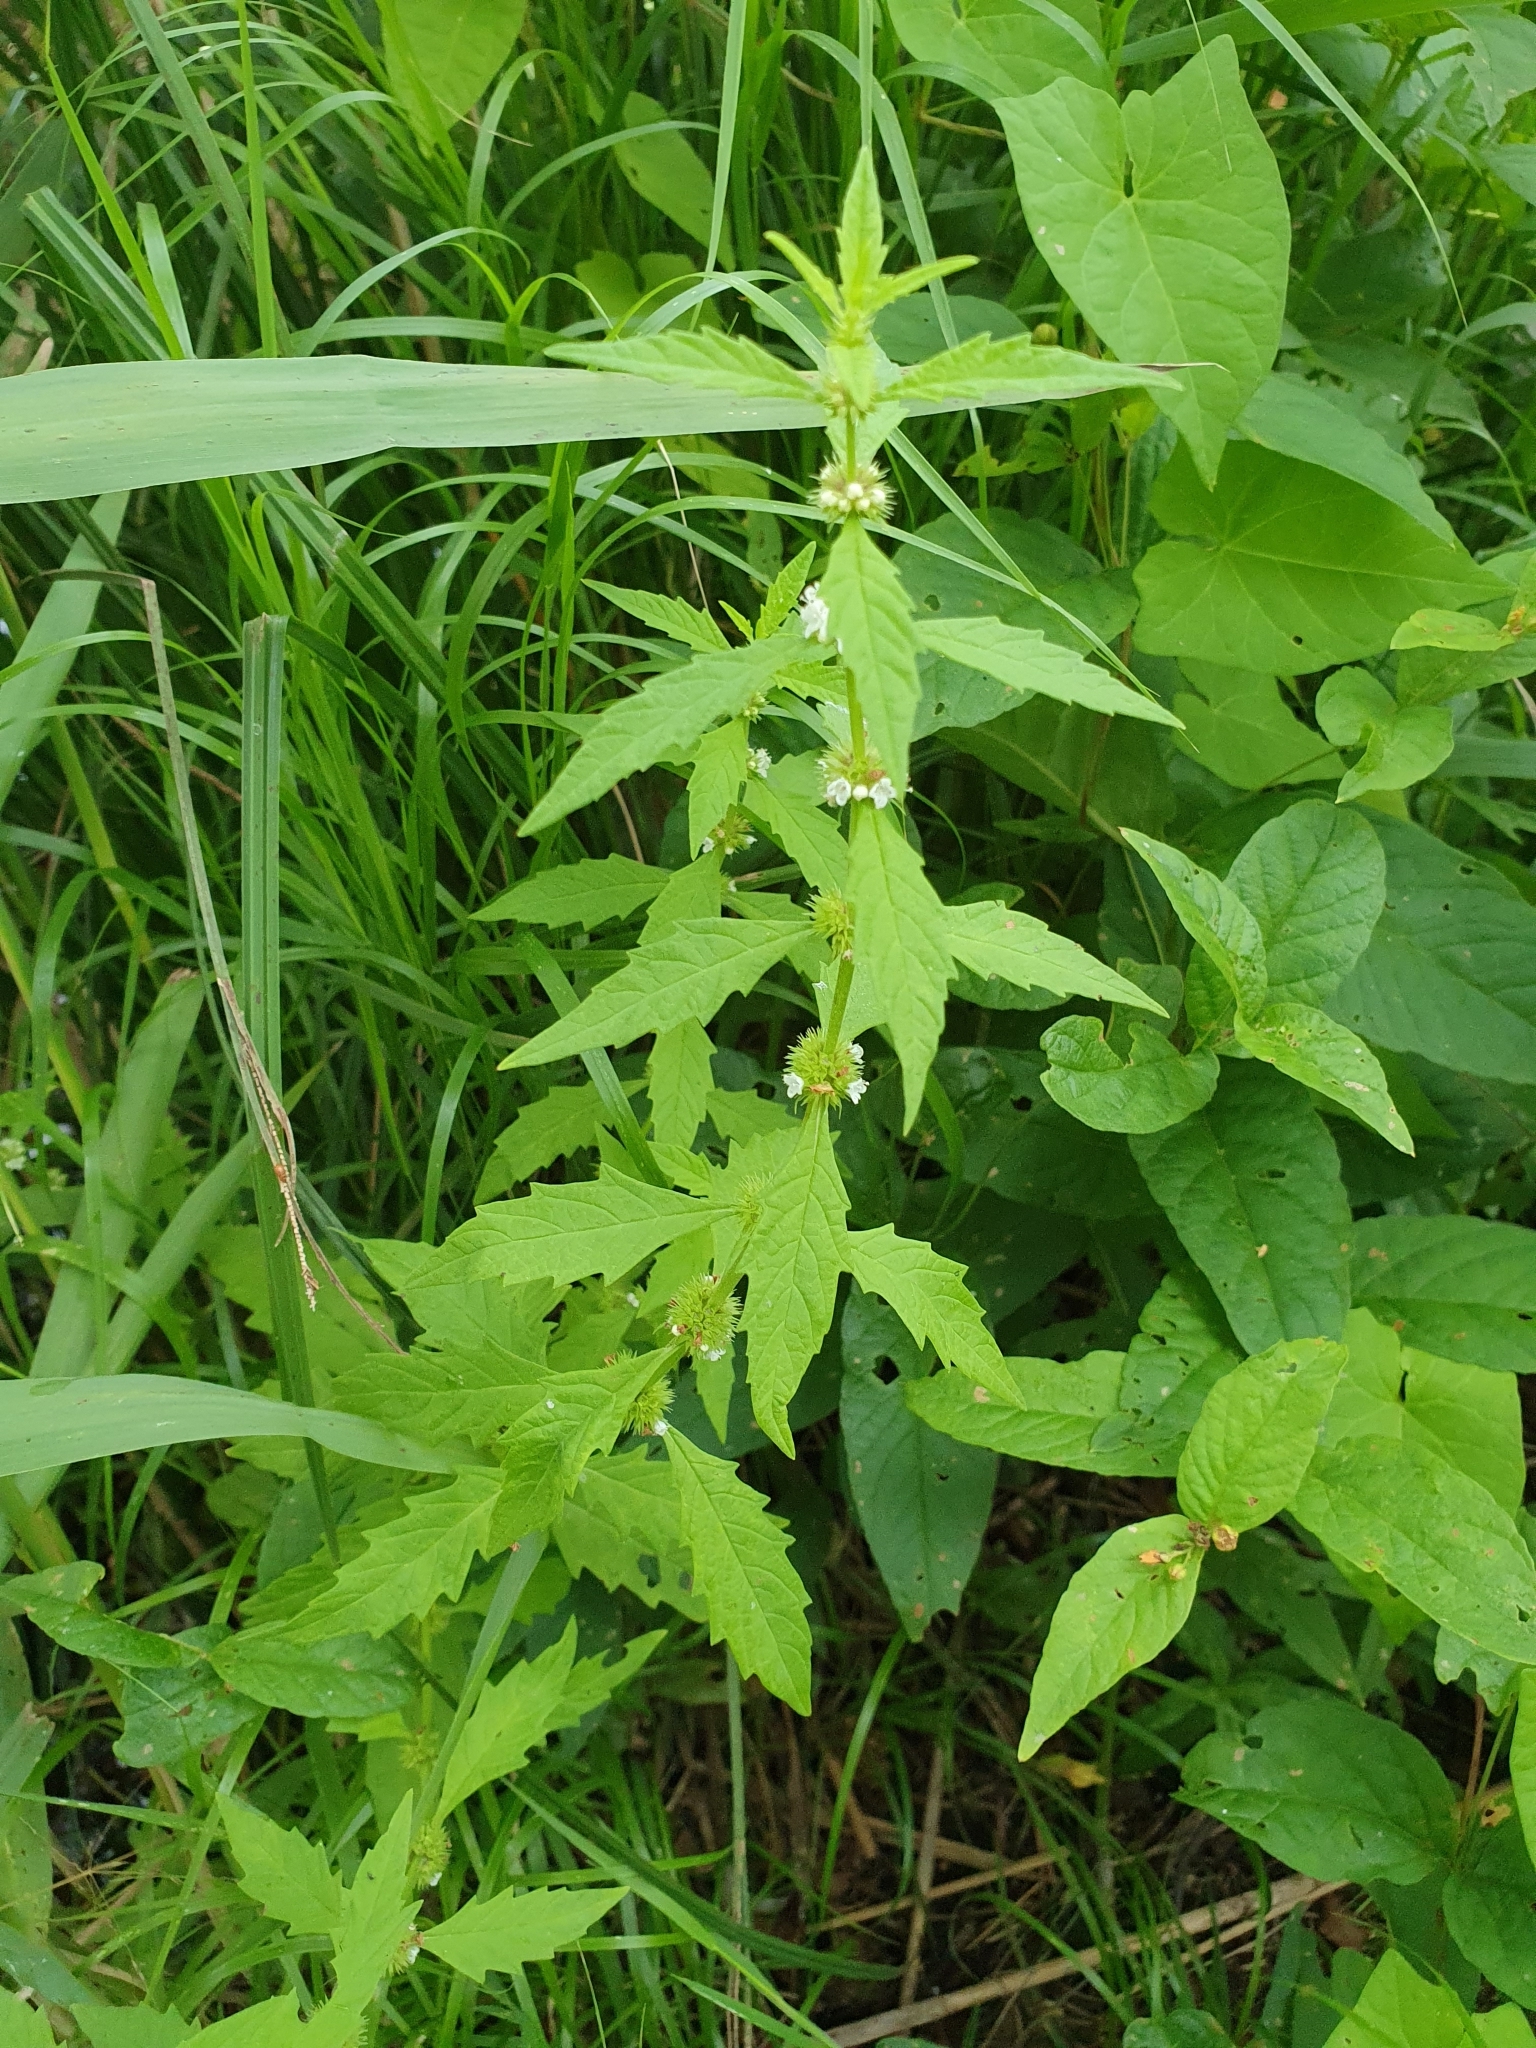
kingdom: Plantae
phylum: Tracheophyta
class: Magnoliopsida
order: Lamiales
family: Lamiaceae
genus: Lycopus
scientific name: Lycopus europaeus
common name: European bugleweed
